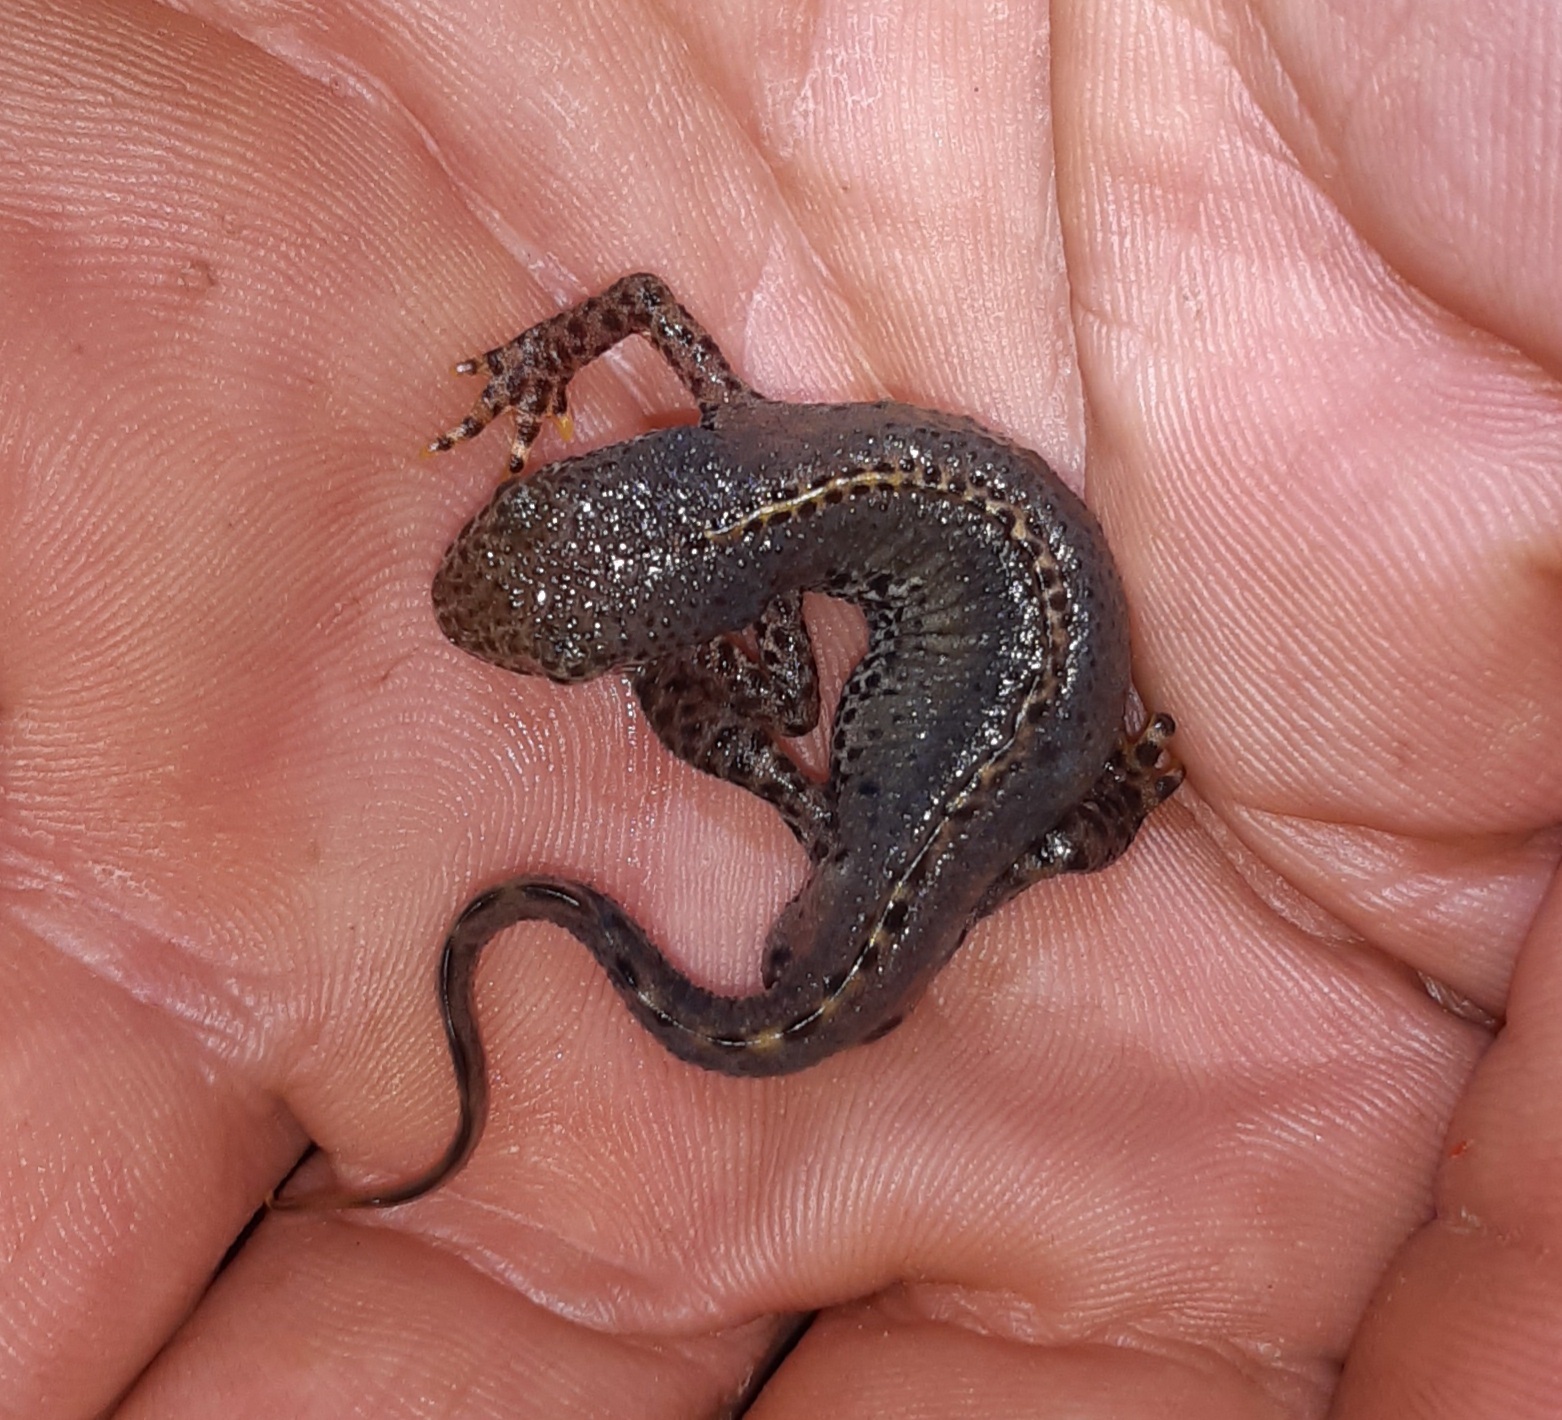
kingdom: Animalia
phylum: Chordata
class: Amphibia
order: Caudata
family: Salamandridae
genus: Ichthyosaura
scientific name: Ichthyosaura alpestris
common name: Alpine newt
